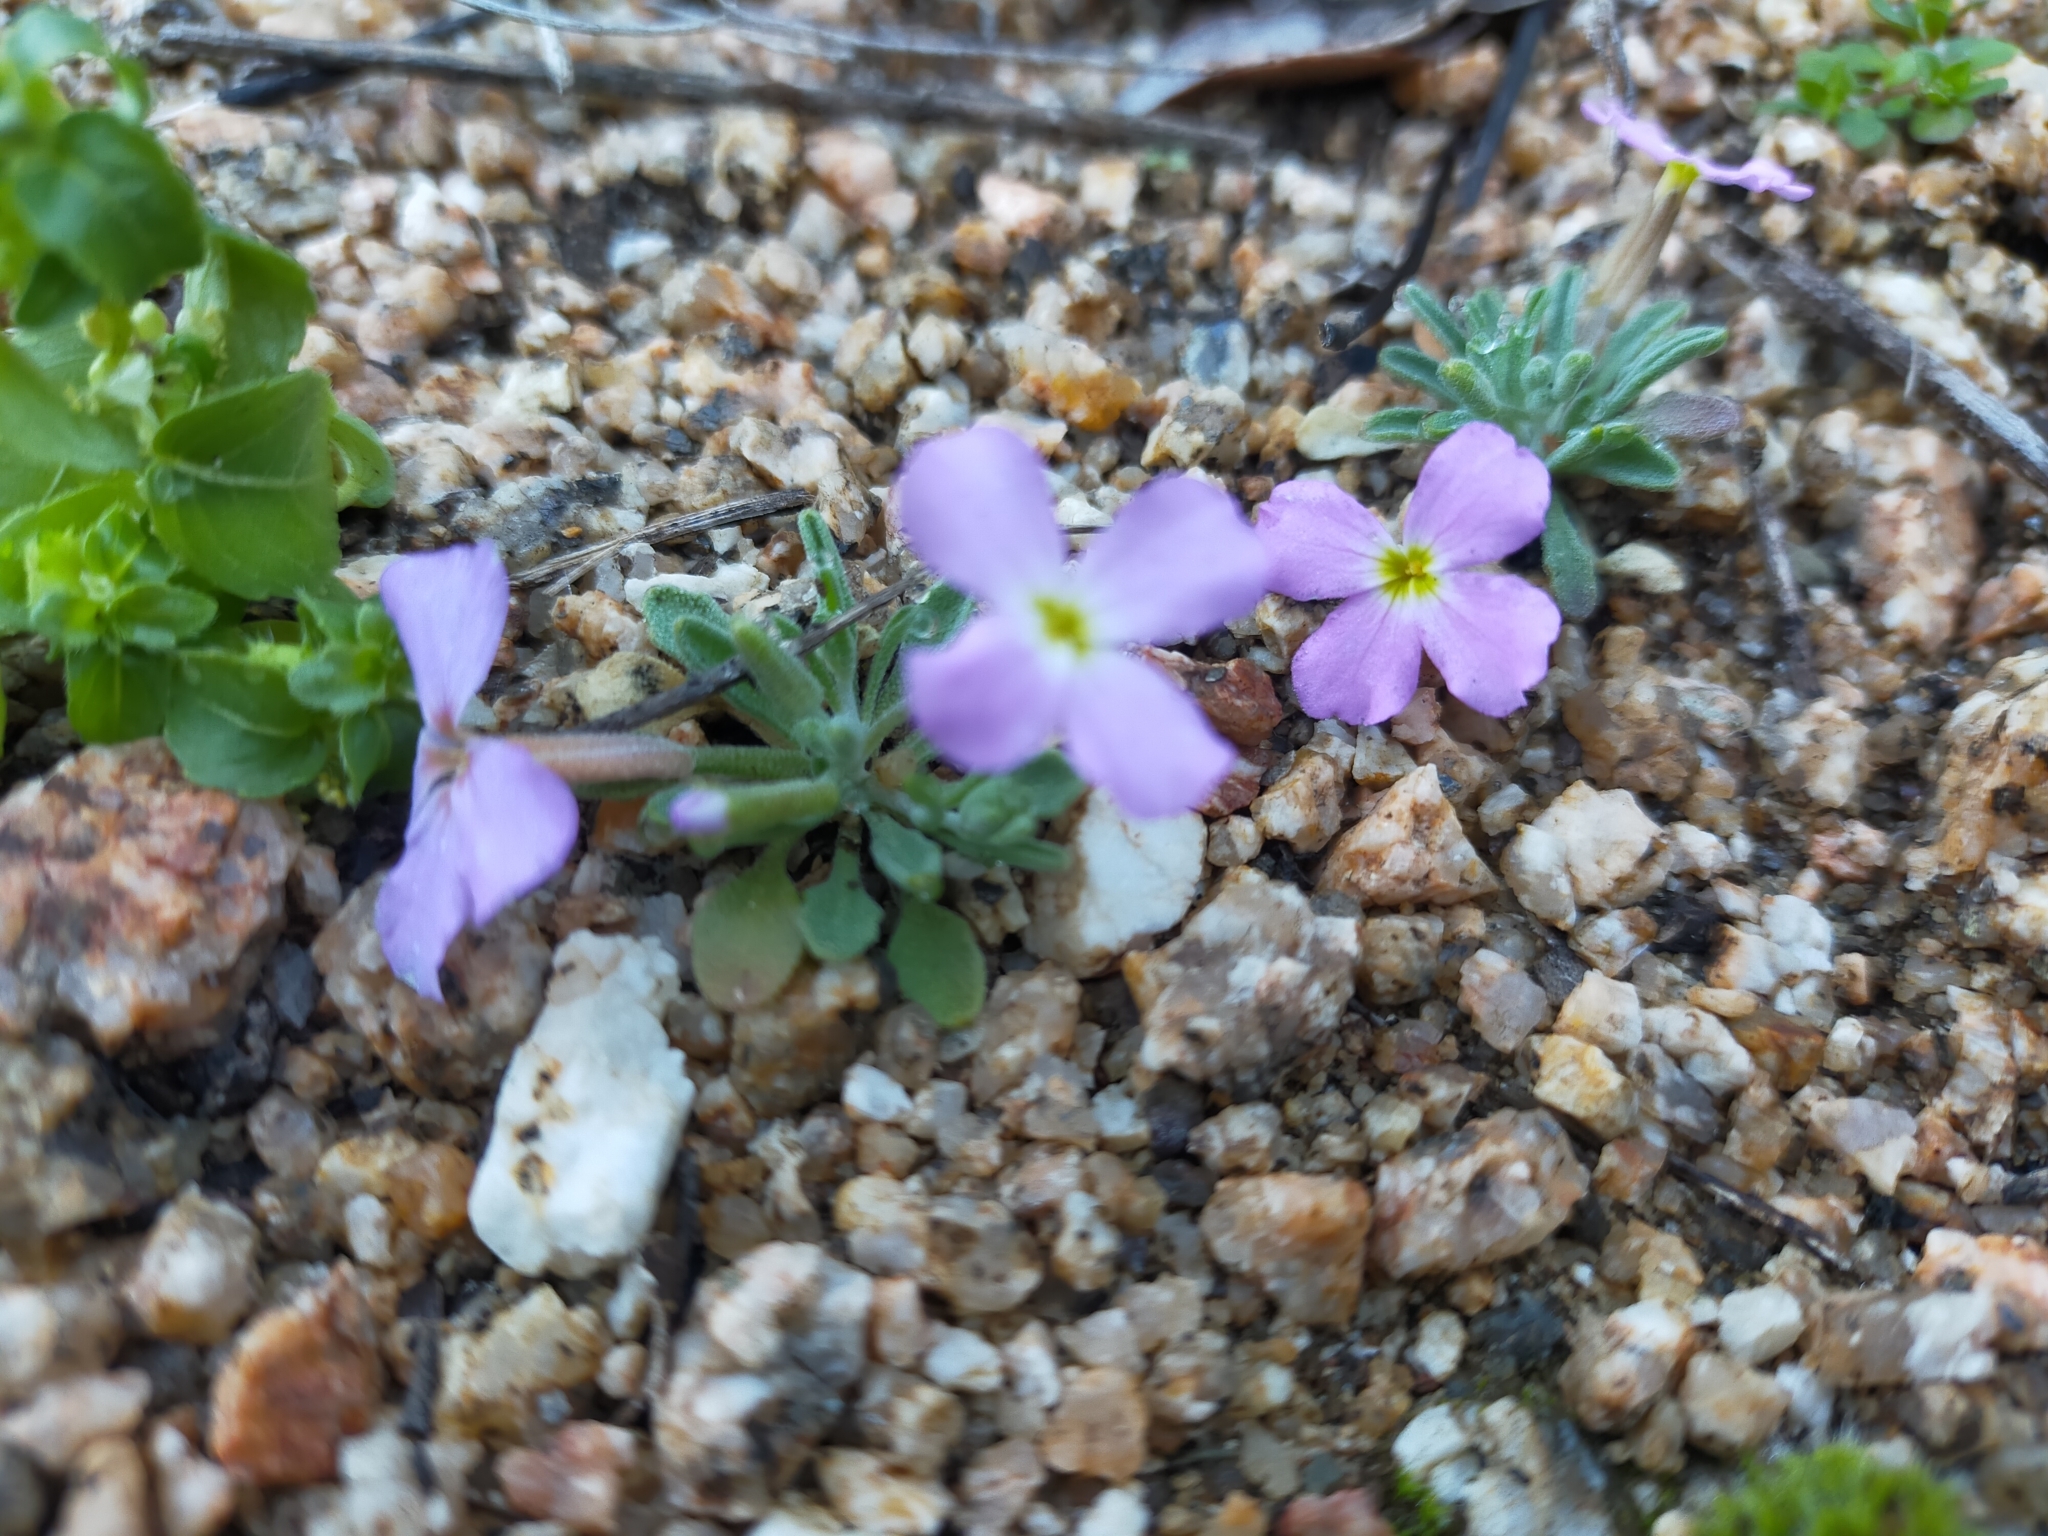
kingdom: Plantae
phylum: Tracheophyta
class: Magnoliopsida
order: Brassicales
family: Brassicaceae
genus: Marcuskochia
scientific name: Marcuskochia triloba
